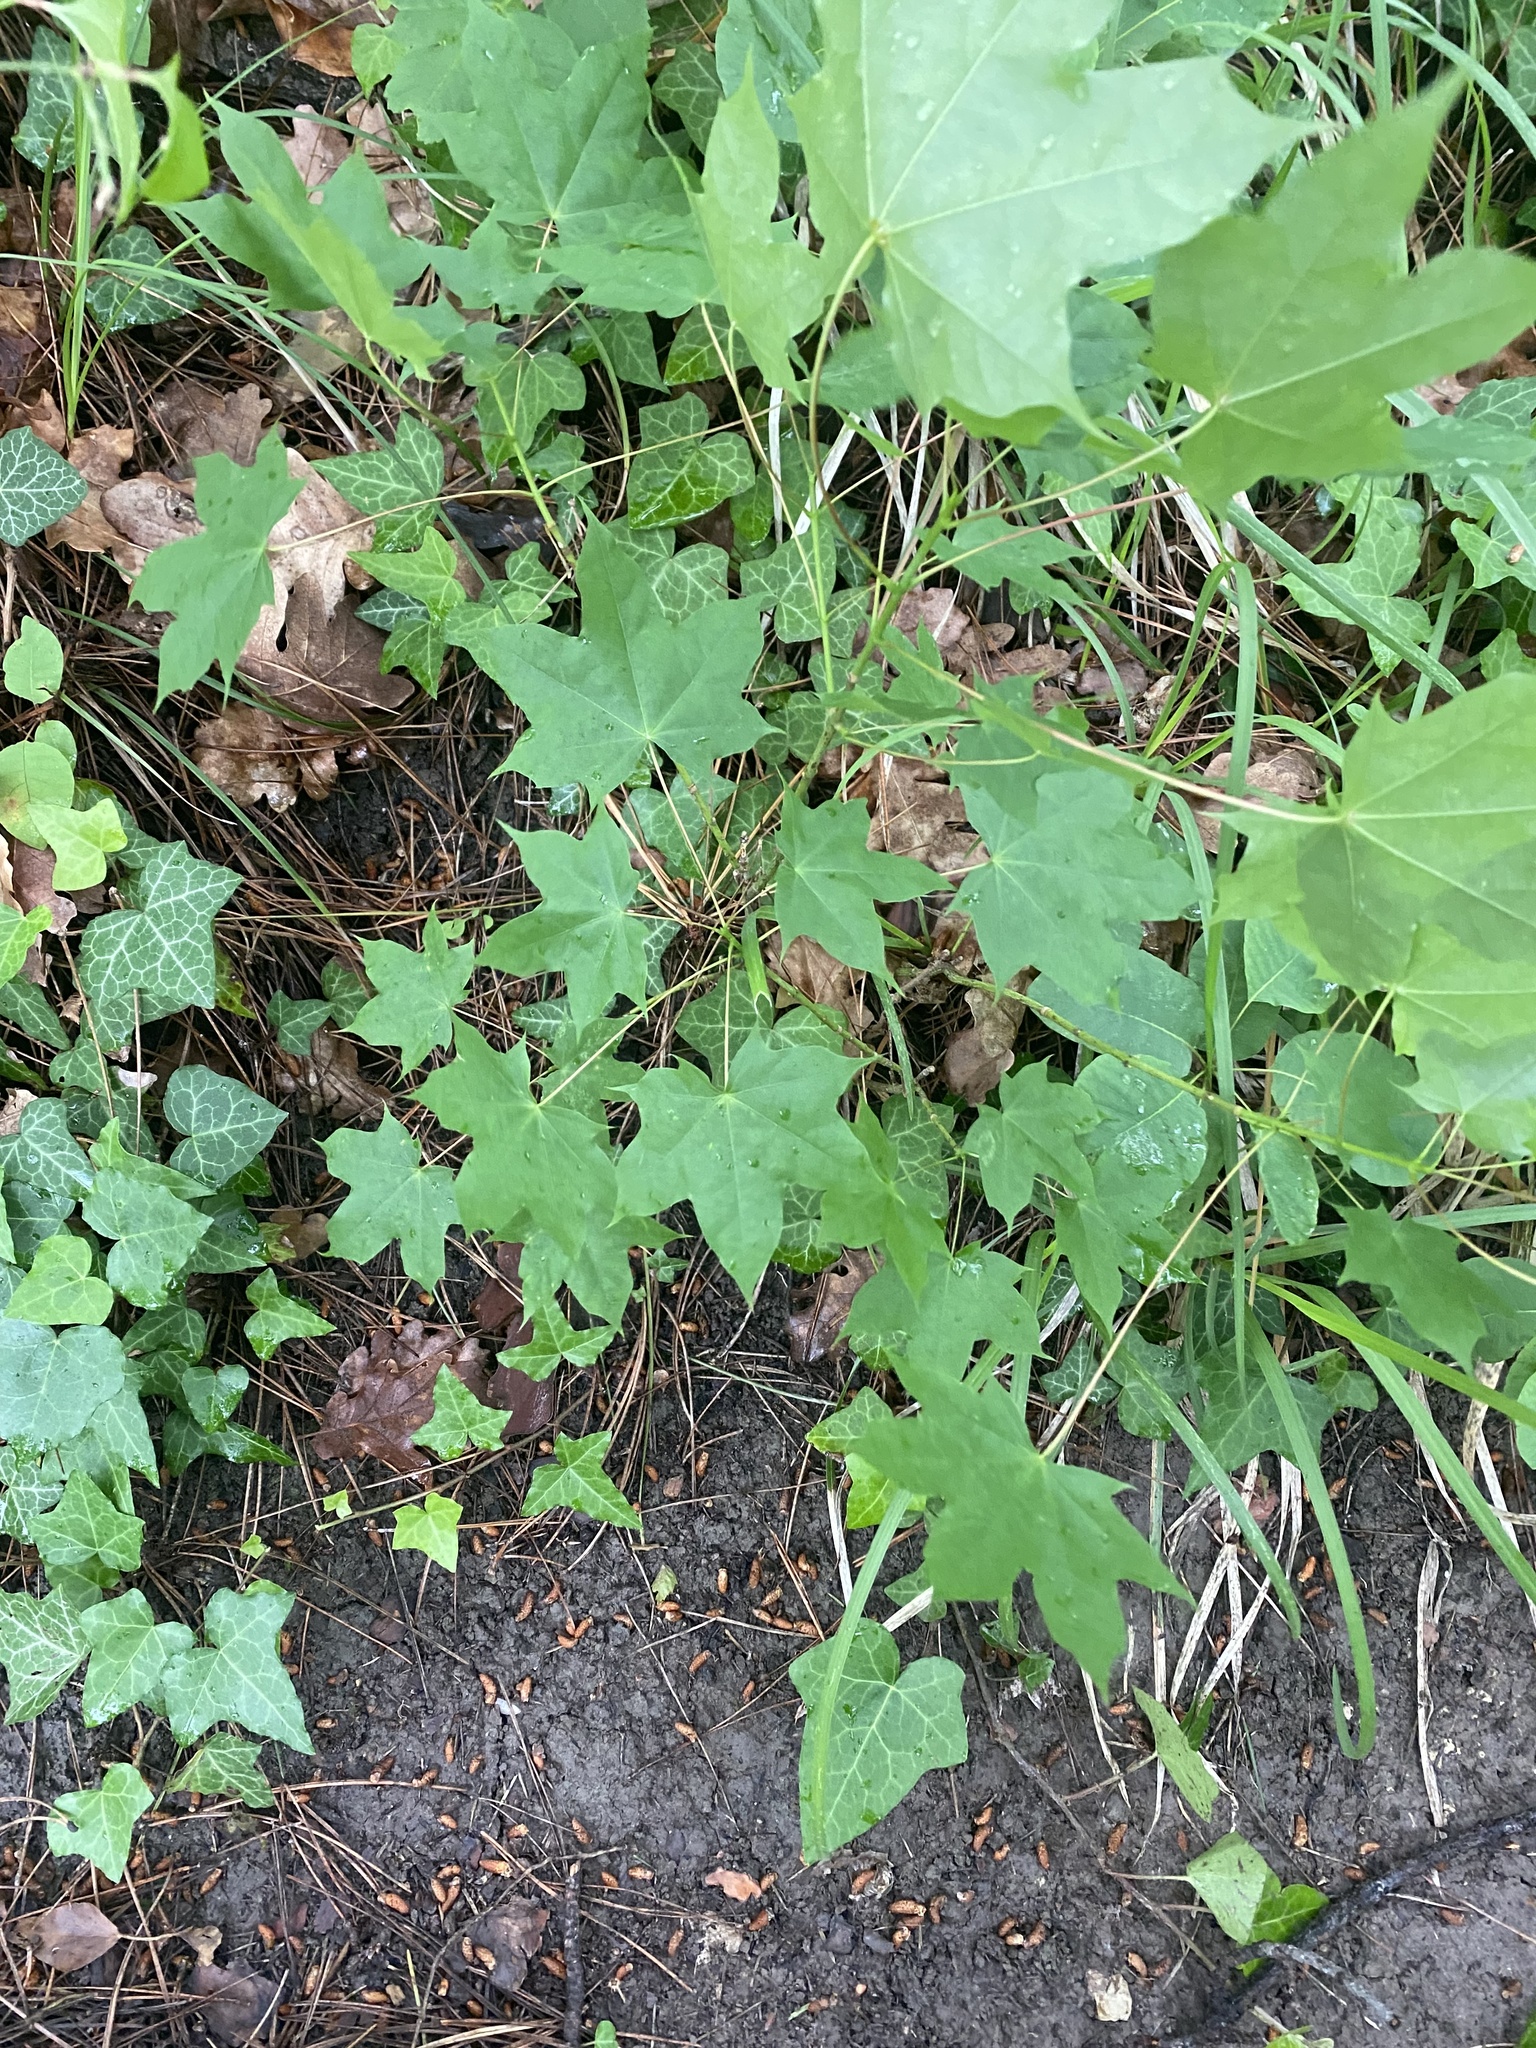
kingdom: Plantae
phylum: Tracheophyta
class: Magnoliopsida
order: Sapindales
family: Sapindaceae
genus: Acer
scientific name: Acer platanoides
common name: Norway maple
